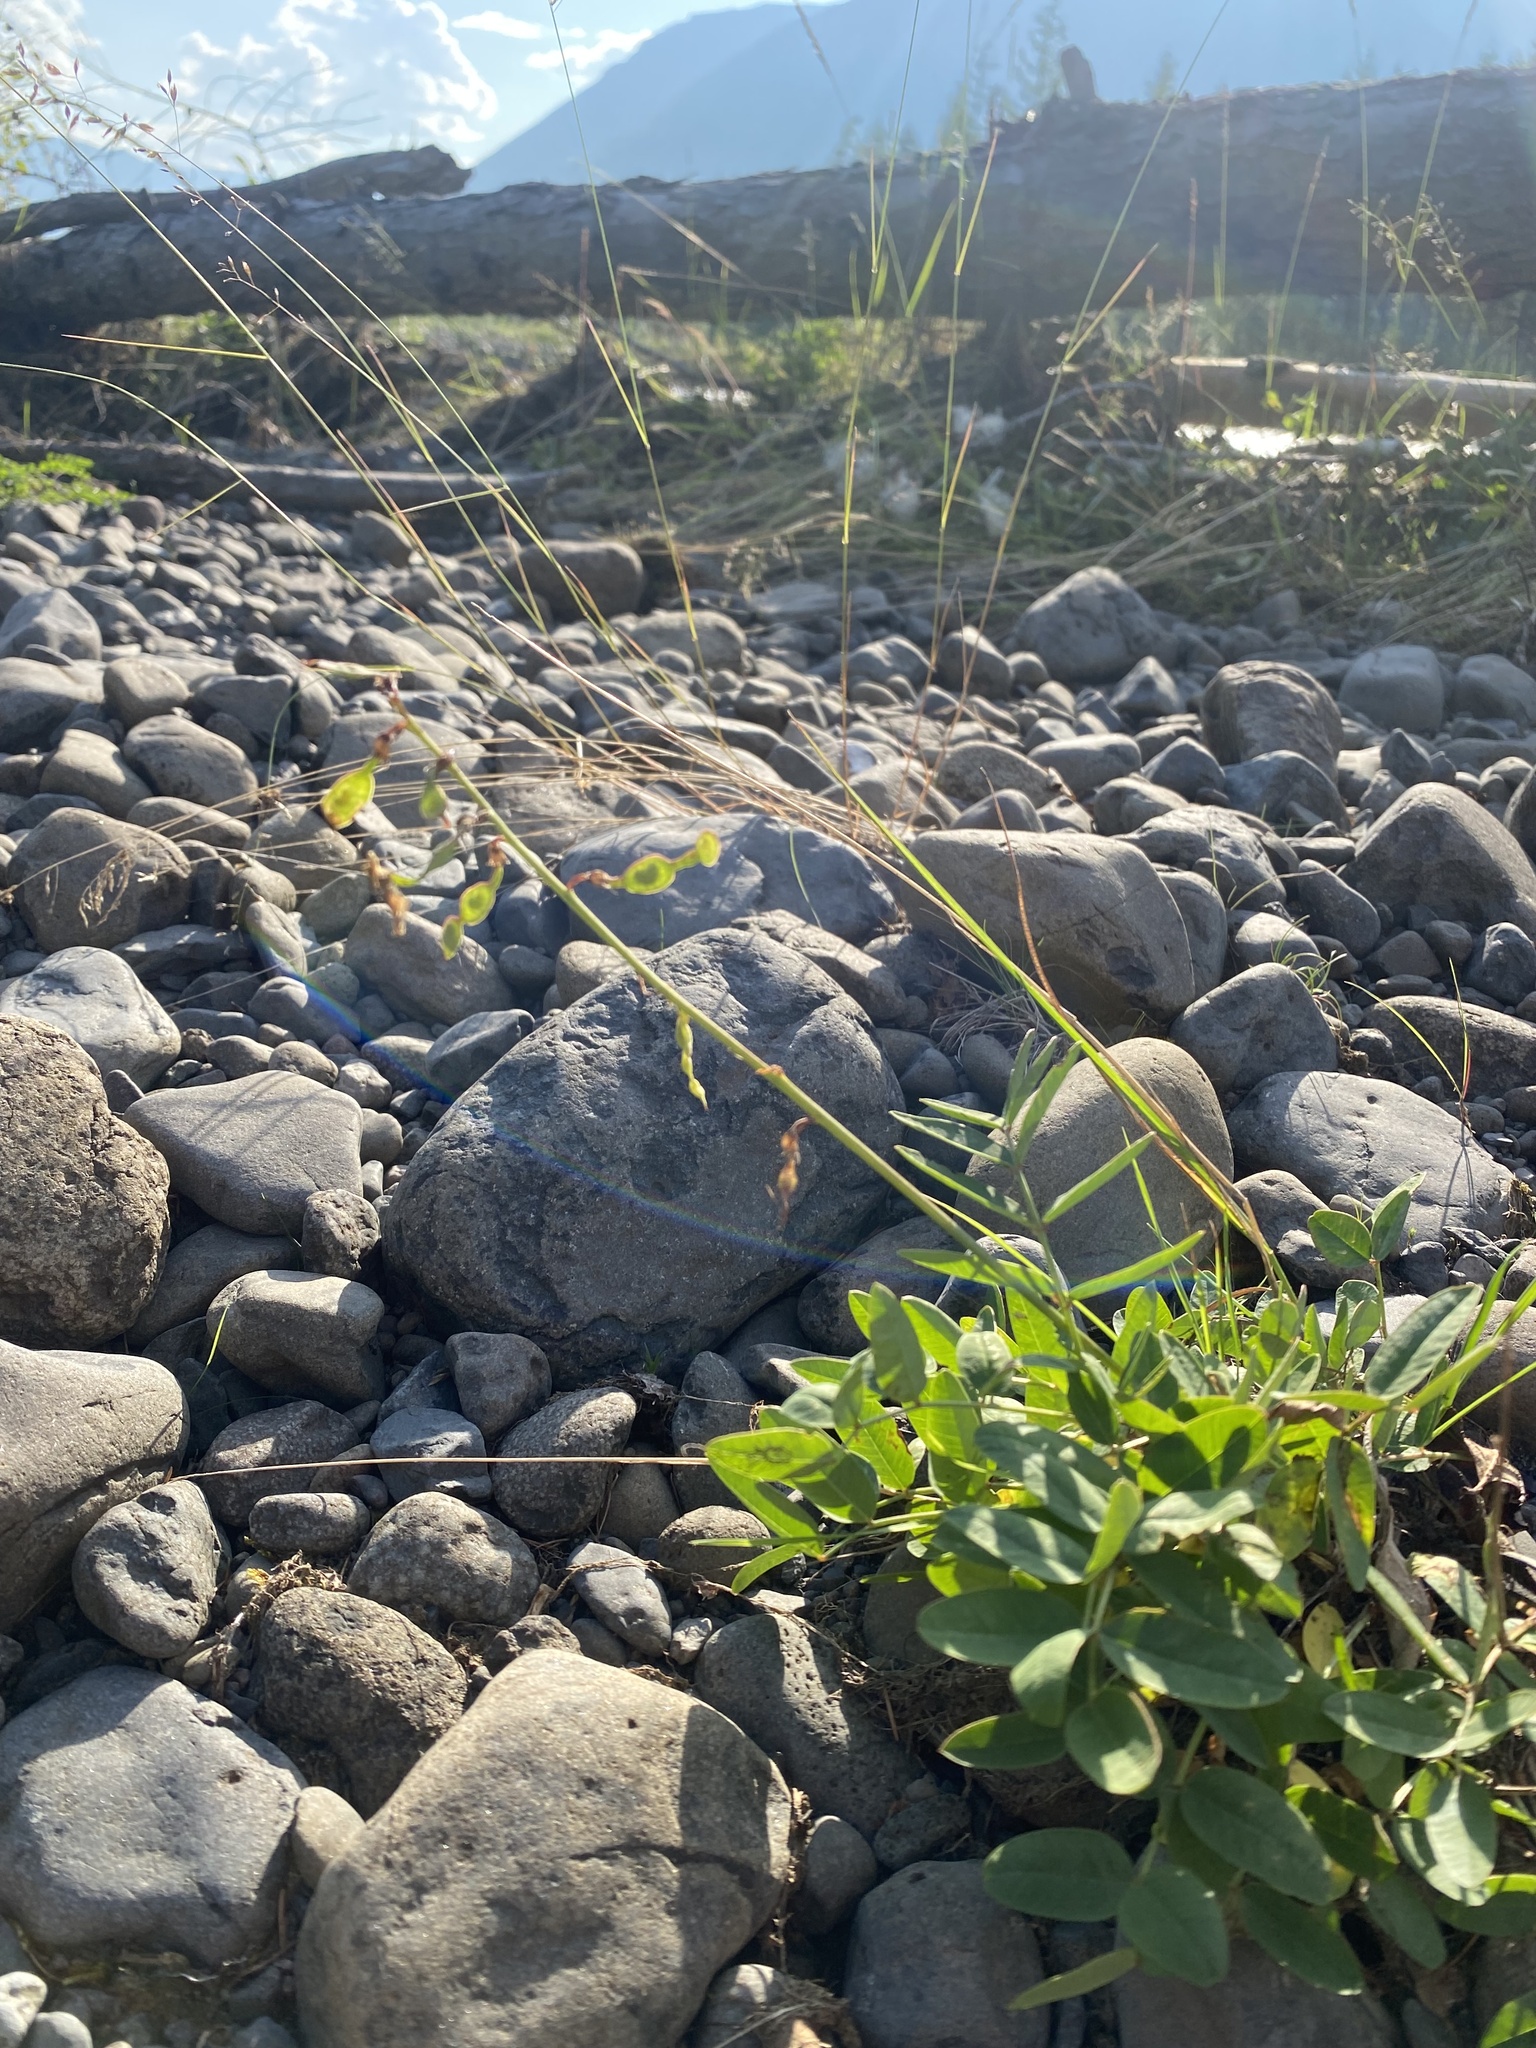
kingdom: Plantae
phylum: Tracheophyta
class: Magnoliopsida
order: Fabales
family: Fabaceae
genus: Hedysarum
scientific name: Hedysarum hedysaroides
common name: Alpine french-honeysuckle
